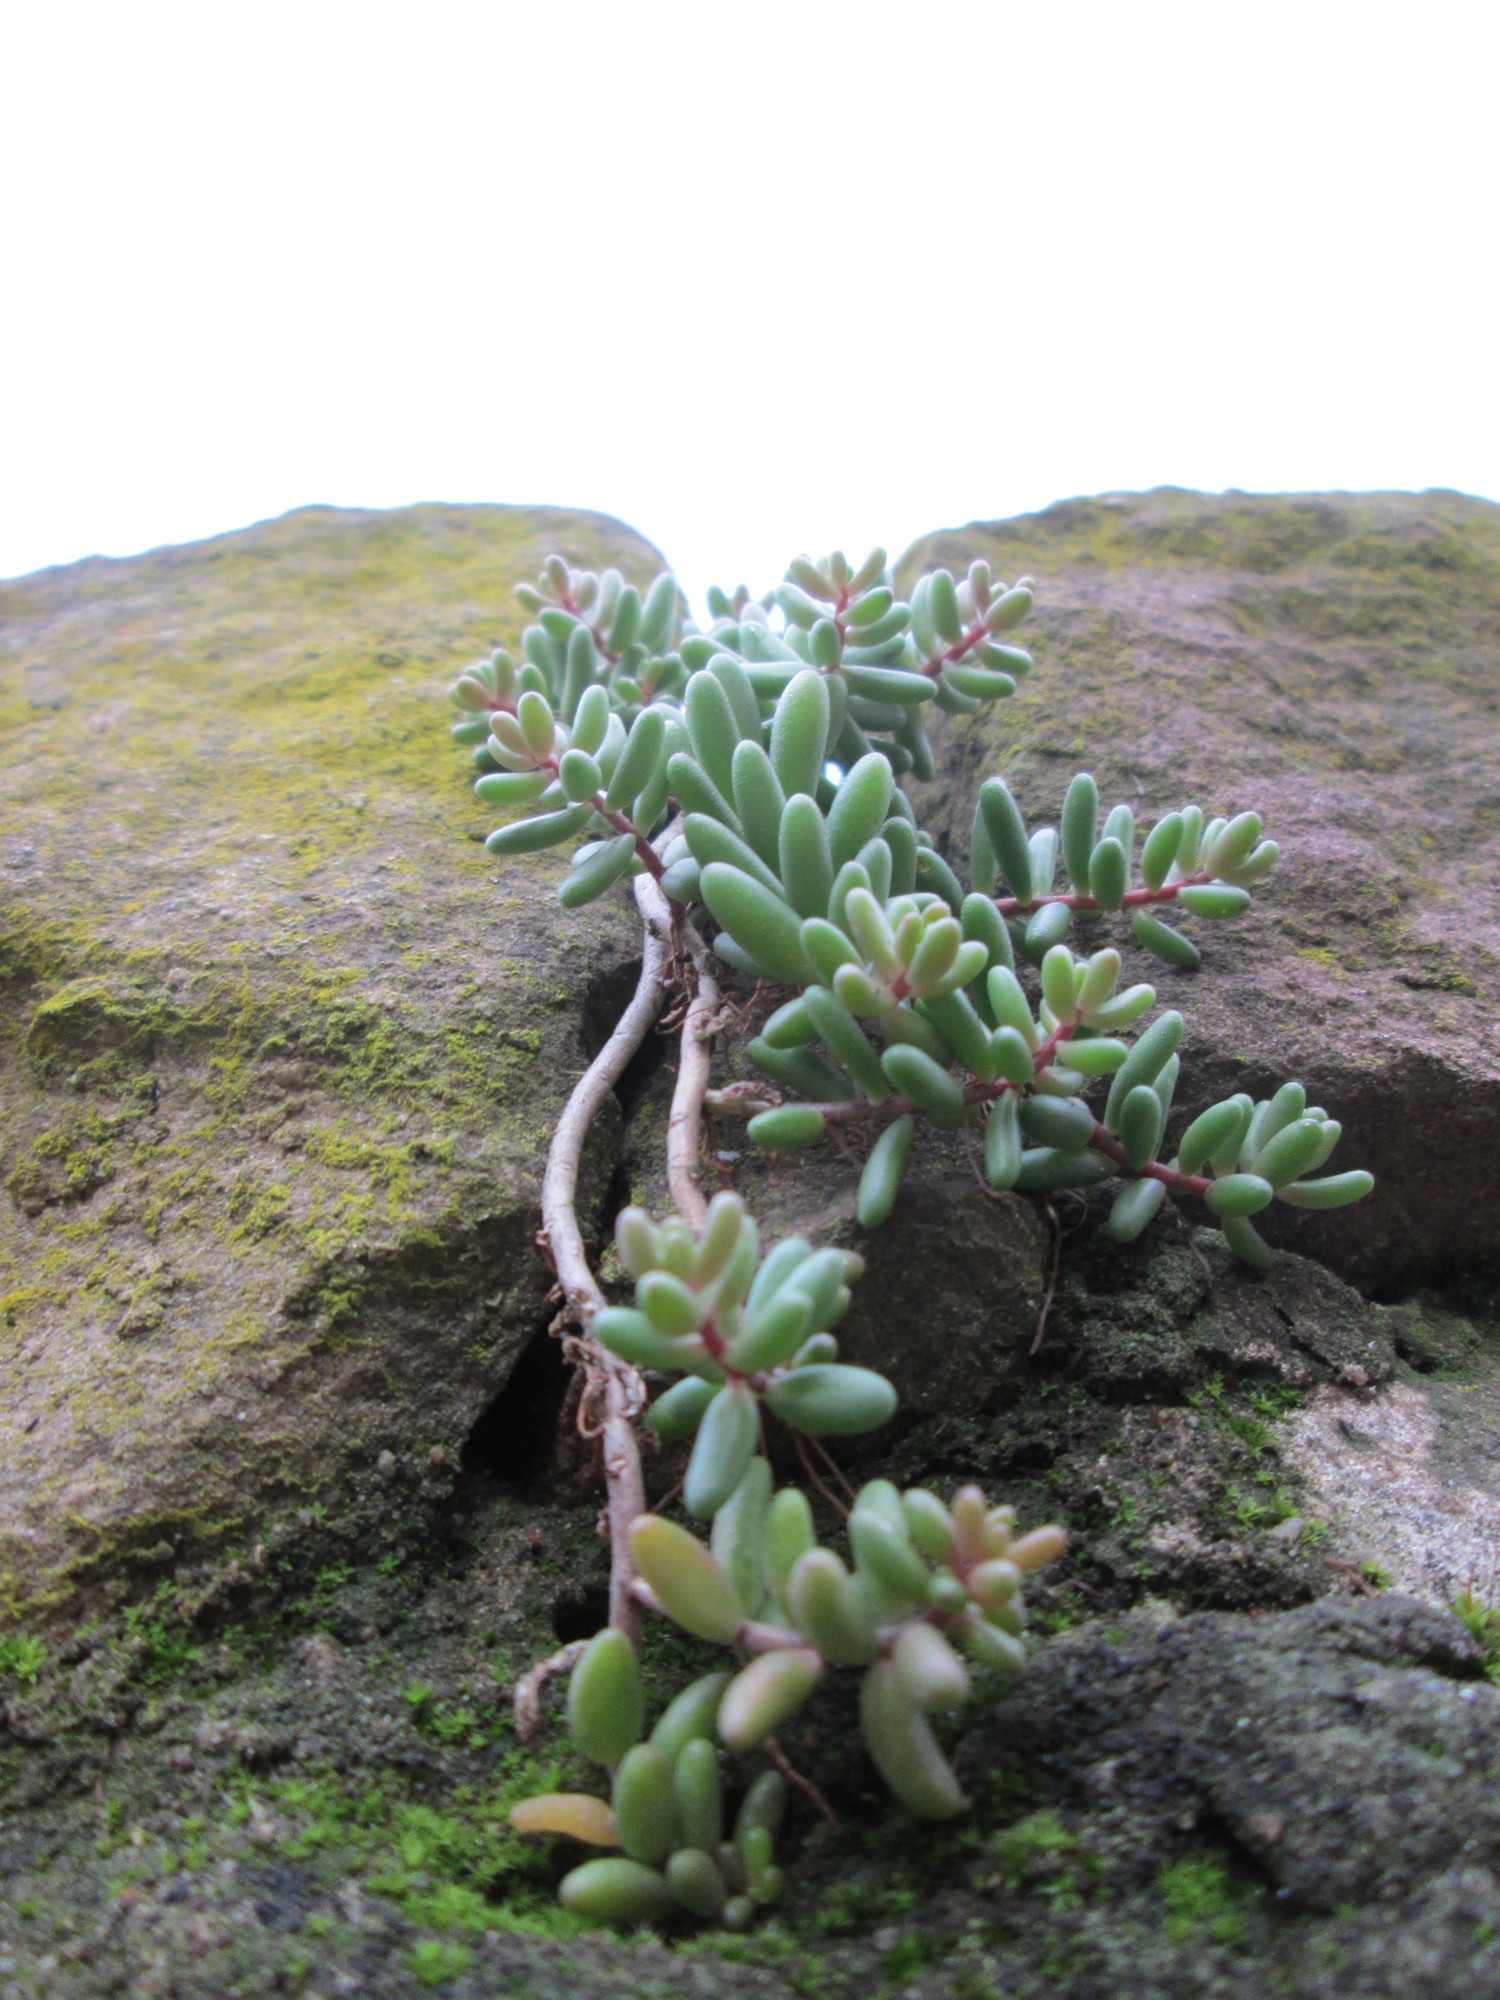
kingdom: Plantae
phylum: Tracheophyta
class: Magnoliopsida
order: Saxifragales
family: Crassulaceae
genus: Sedum
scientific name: Sedum album
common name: White stonecrop
